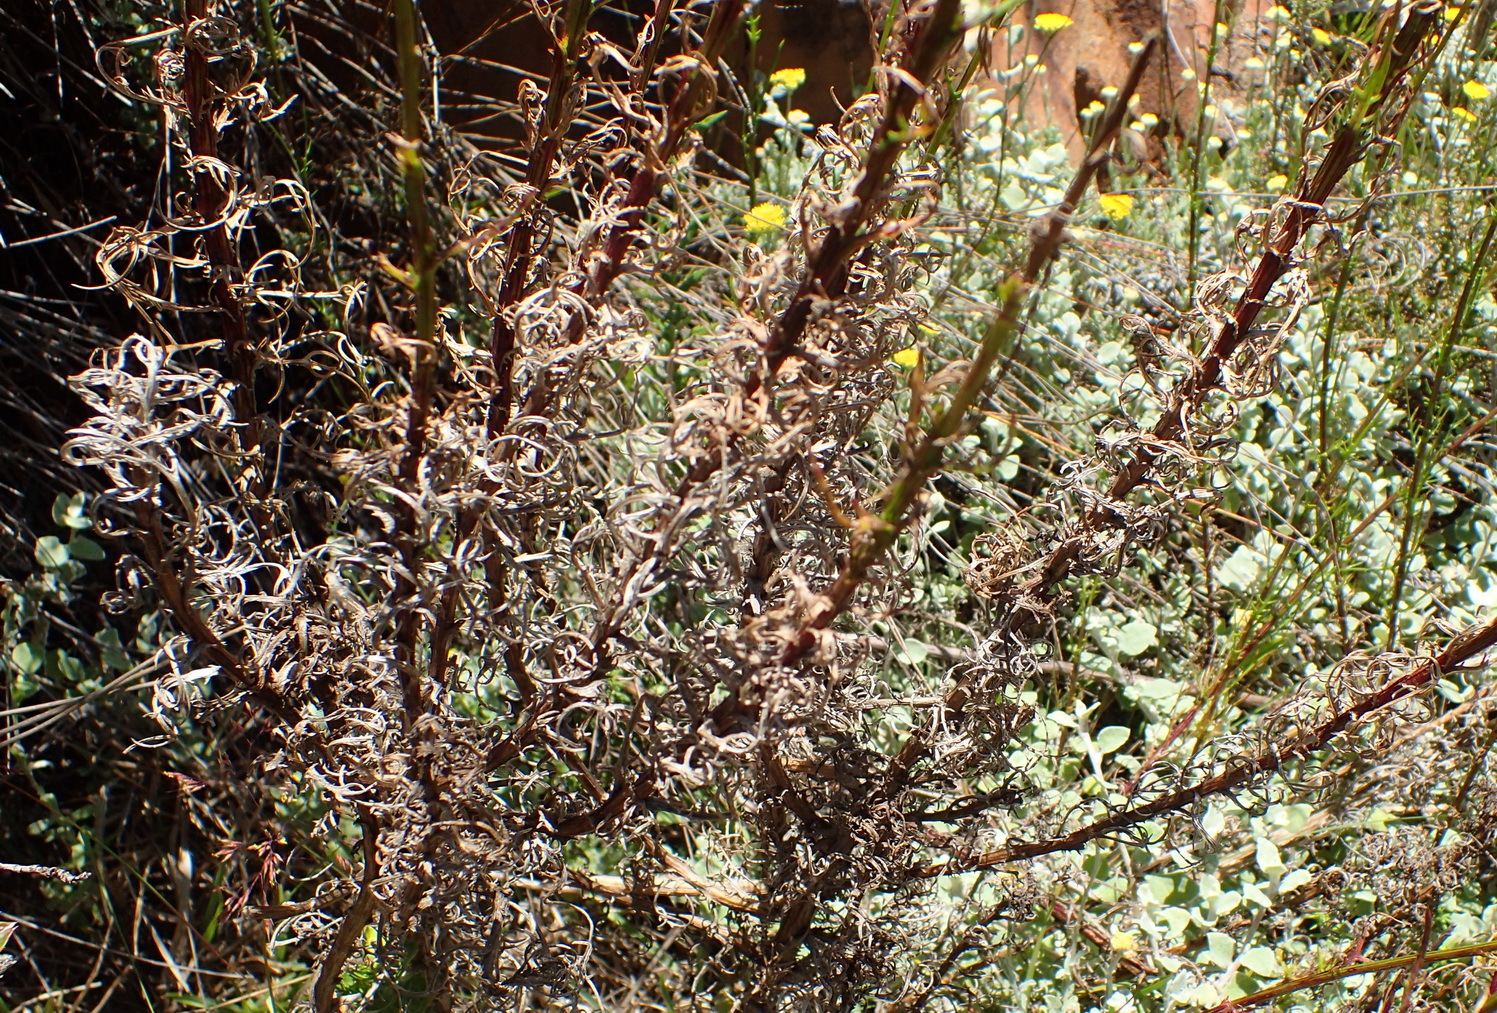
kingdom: Plantae
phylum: Tracheophyta
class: Magnoliopsida
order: Asterales
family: Asteraceae
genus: Senecio
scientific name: Senecio paniculatus
